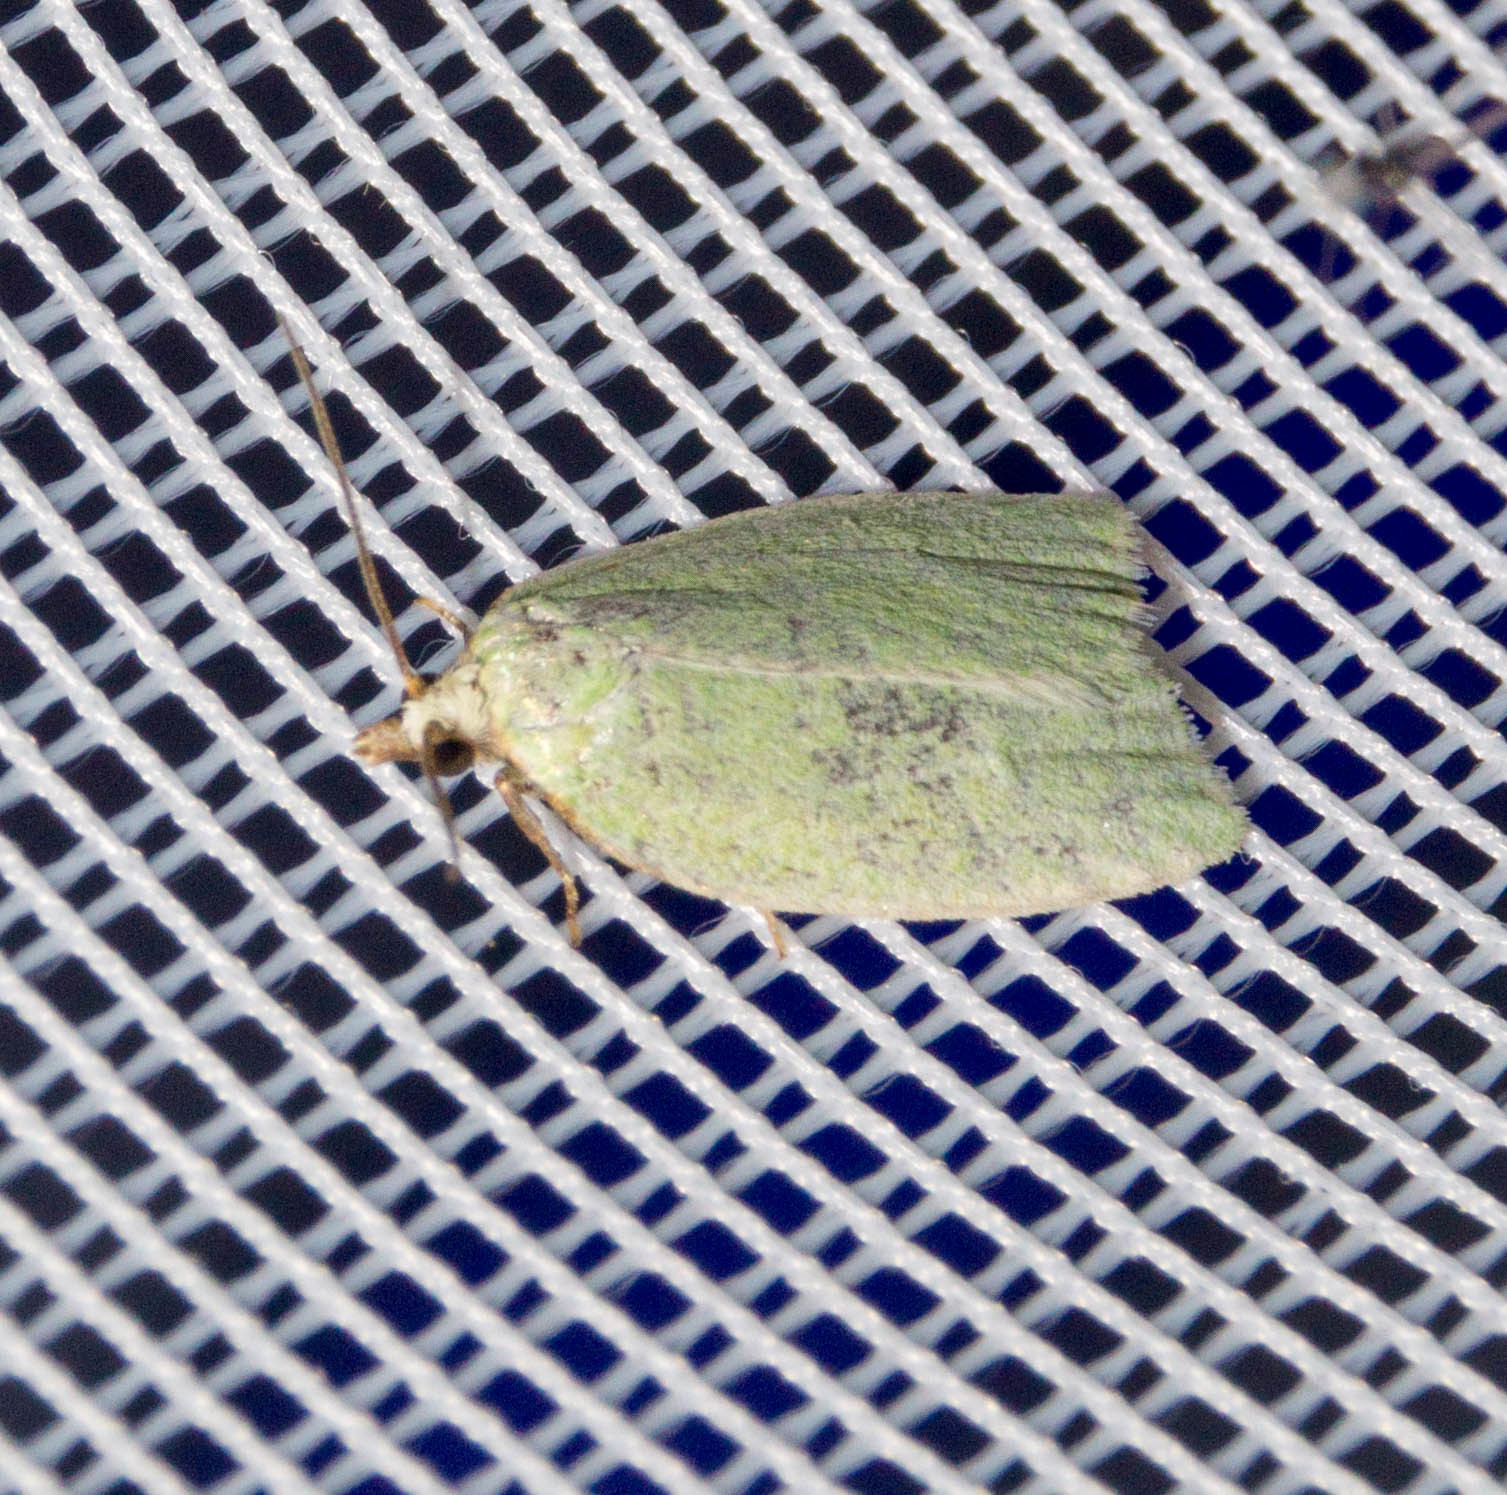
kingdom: Animalia
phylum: Arthropoda
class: Insecta
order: Lepidoptera
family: Tortricidae
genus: Tortrix
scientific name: Tortrix viridana
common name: Green oak tortrix
